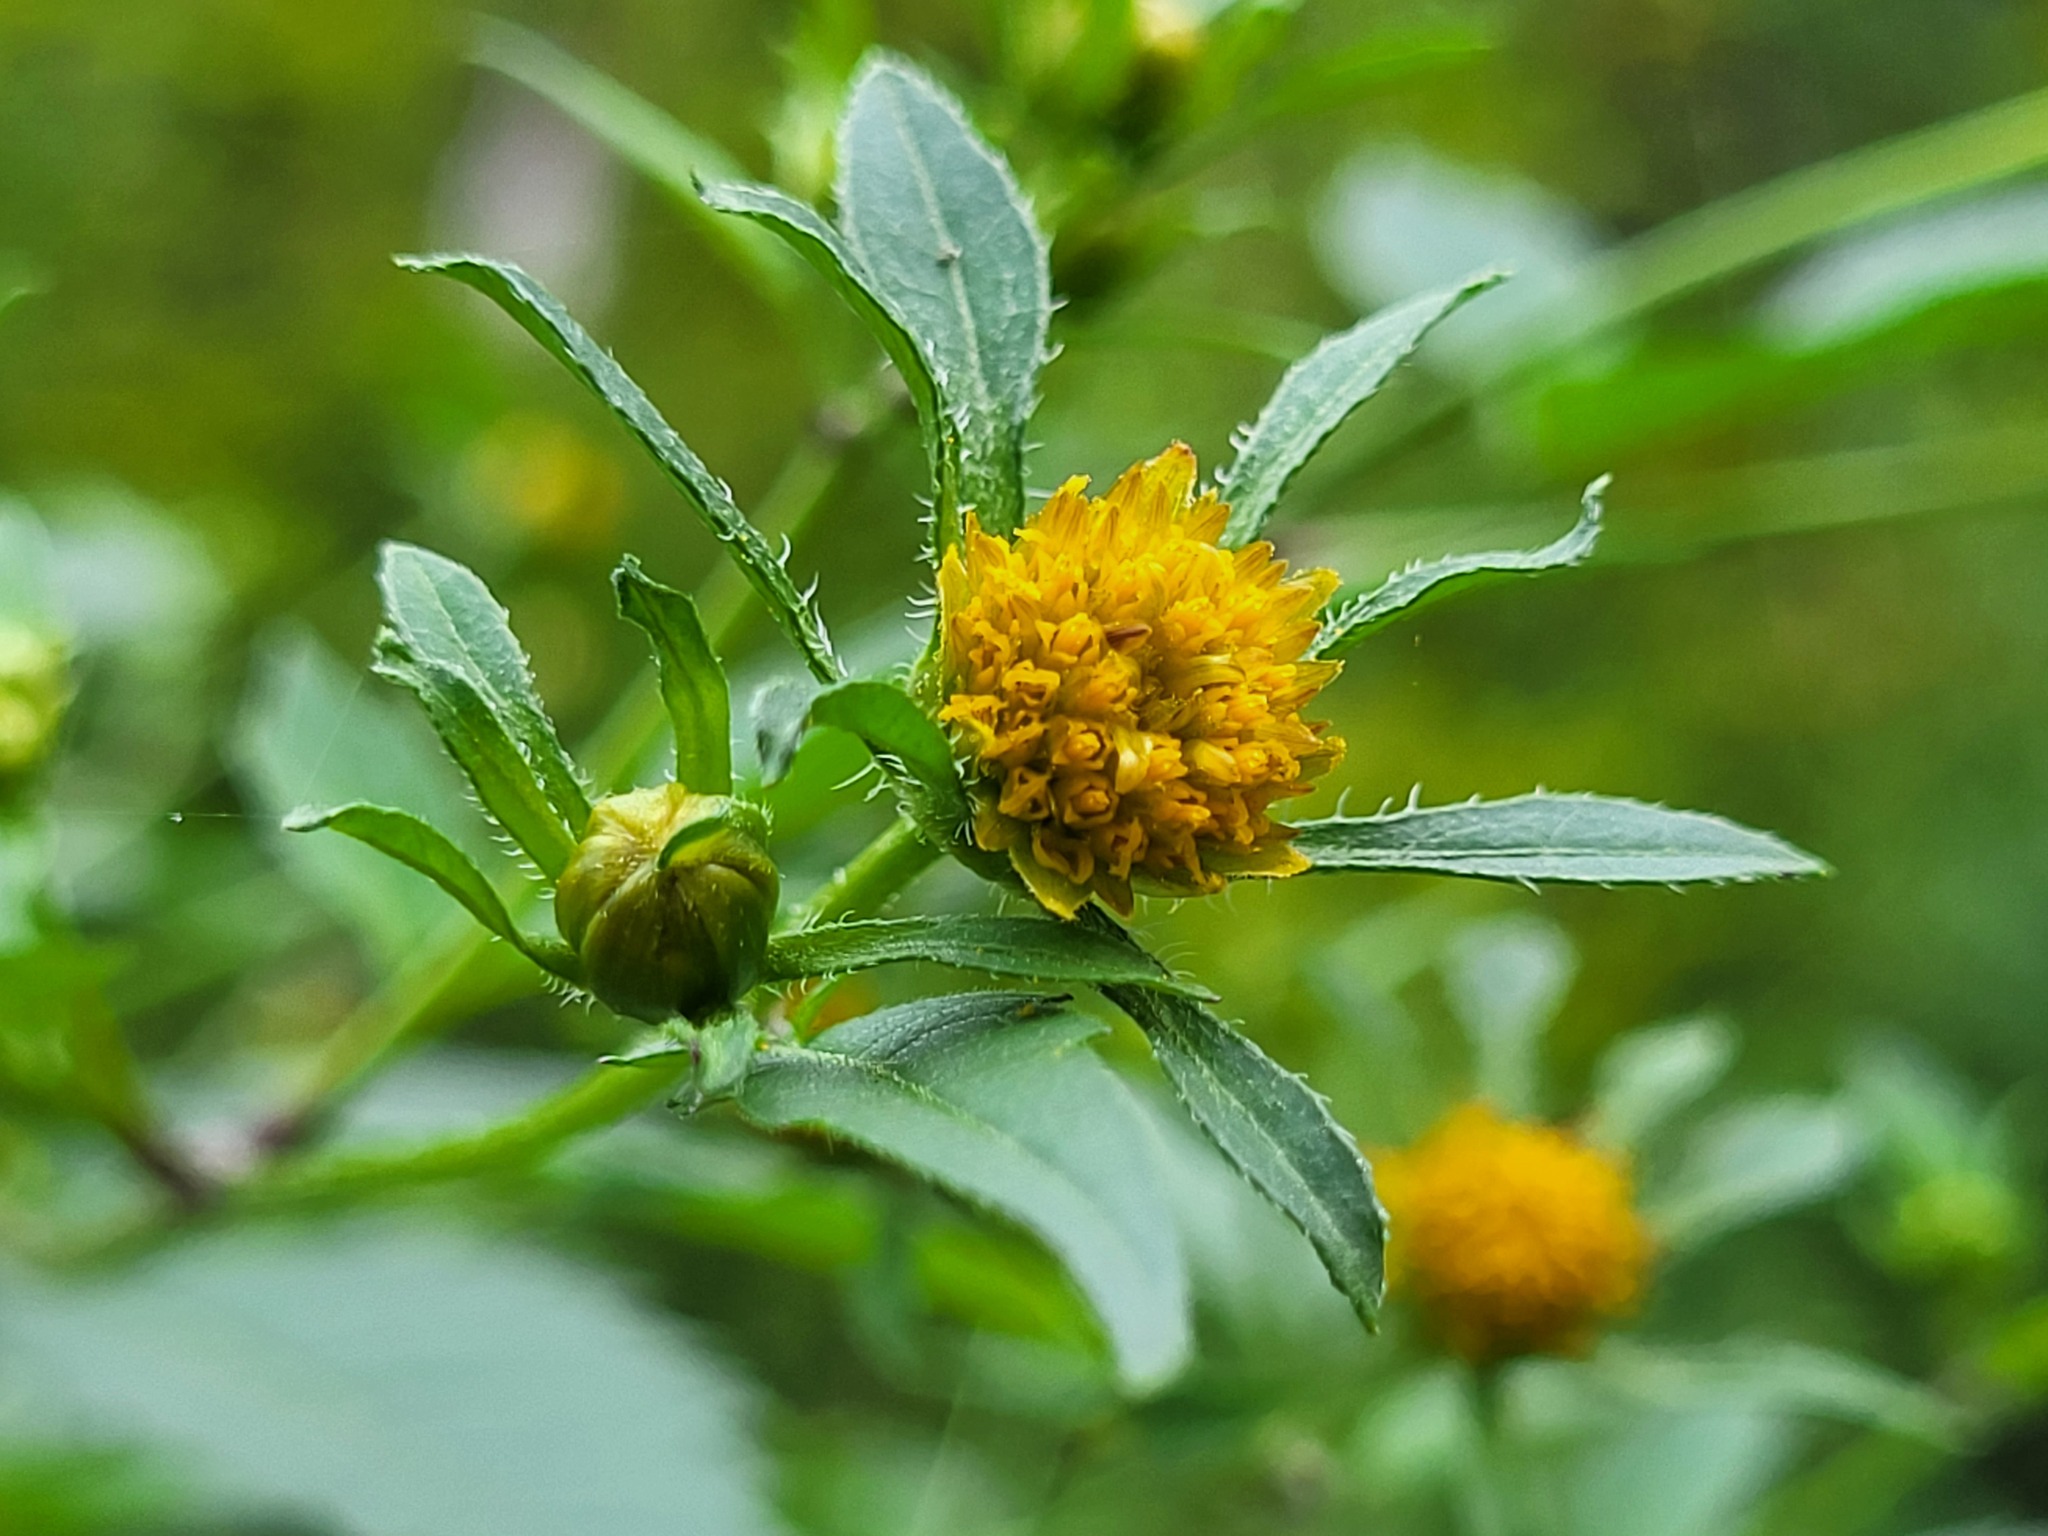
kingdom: Plantae
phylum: Tracheophyta
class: Magnoliopsida
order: Asterales
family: Asteraceae
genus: Bidens
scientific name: Bidens frondosa
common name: Beggarticks
